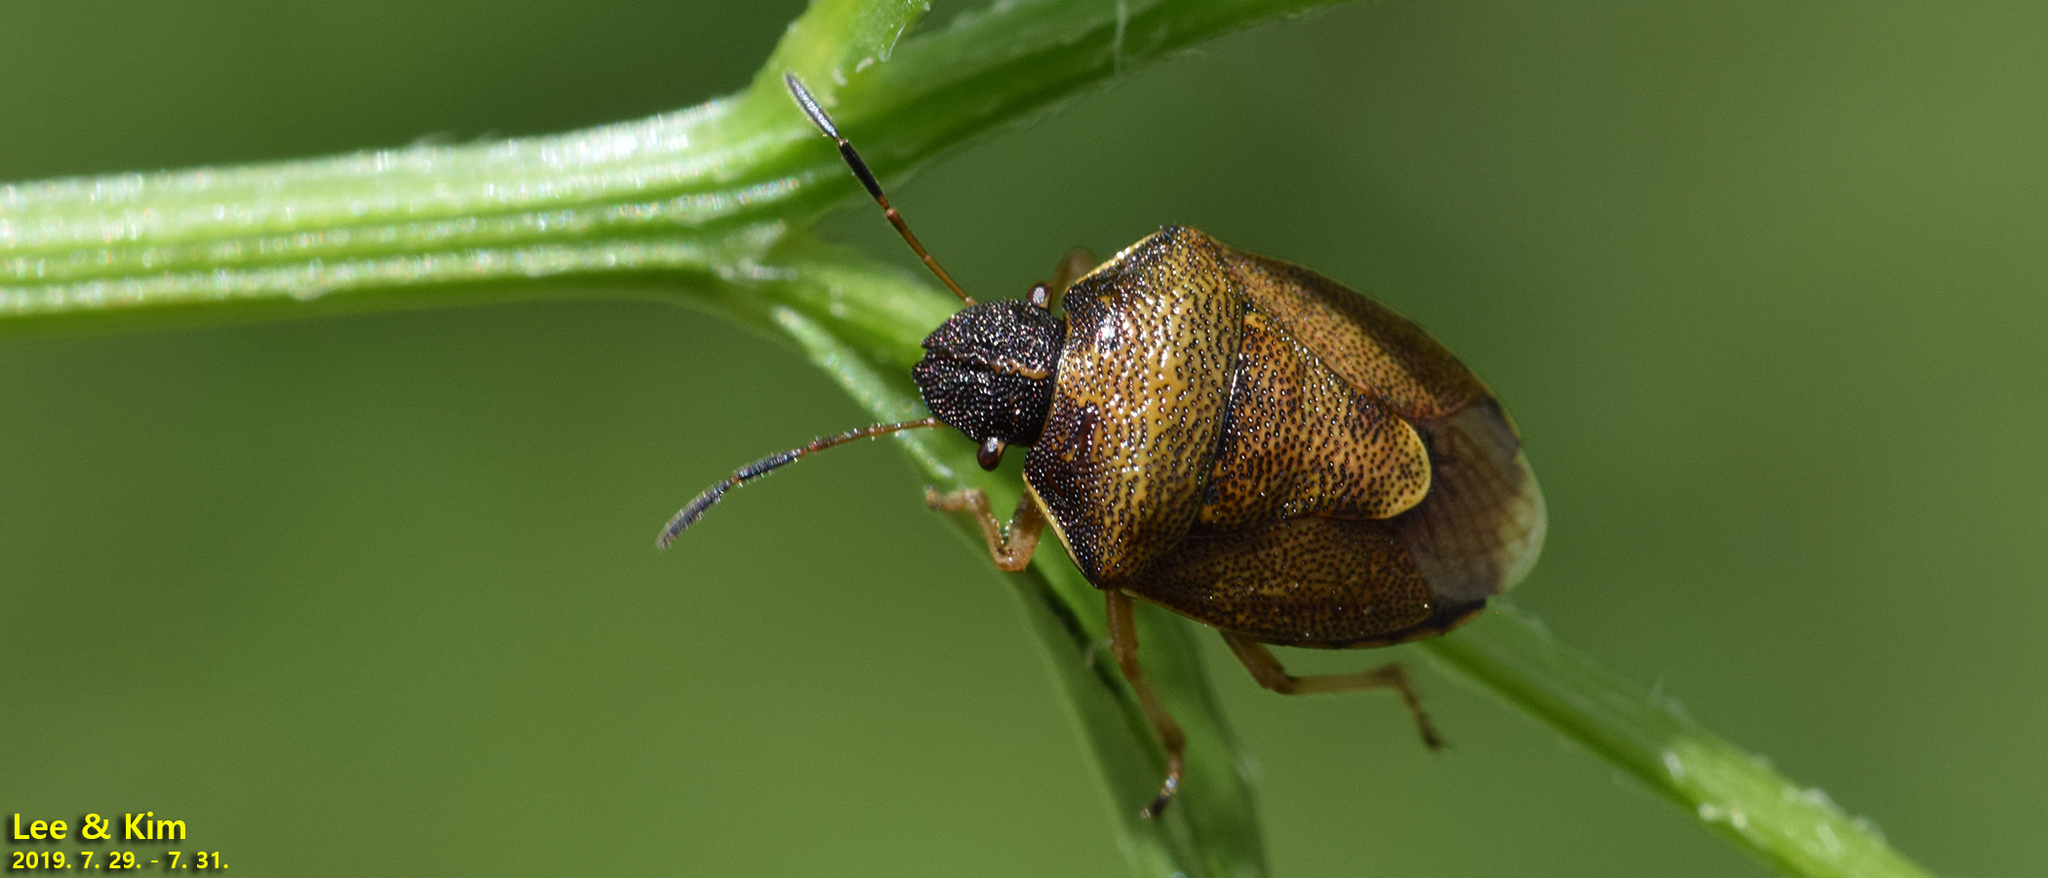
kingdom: Animalia
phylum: Arthropoda
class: Insecta
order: Hemiptera
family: Pentatomidae
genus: Rubiconia
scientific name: Rubiconia intermedia
